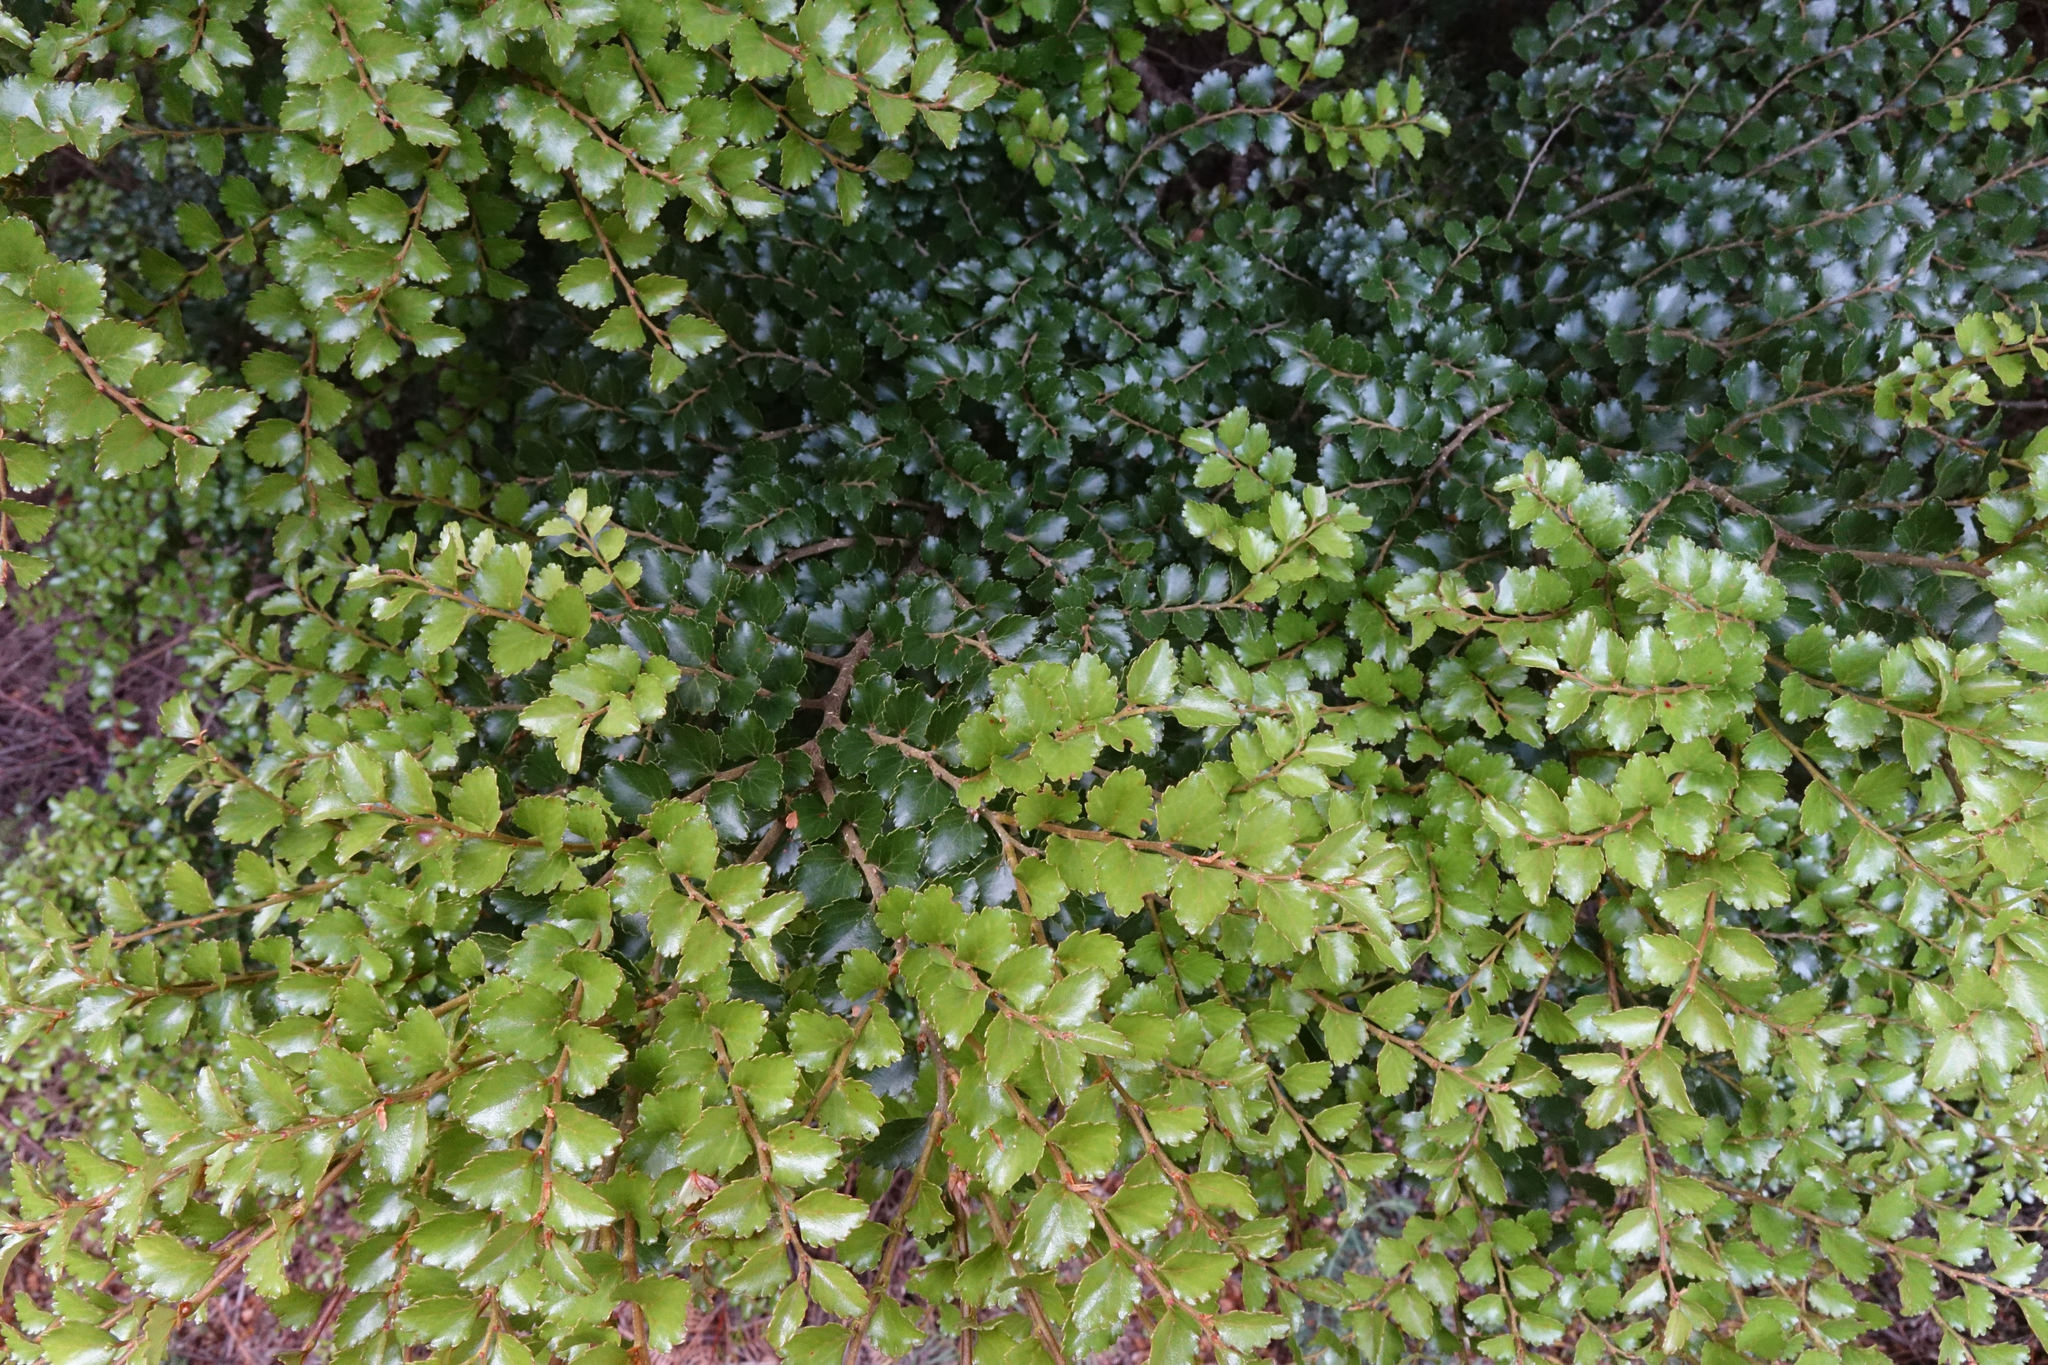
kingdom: Plantae
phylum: Tracheophyta
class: Magnoliopsida
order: Fagales
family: Nothofagaceae
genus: Nothofagus
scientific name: Nothofagus menziesii
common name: Silver beech
